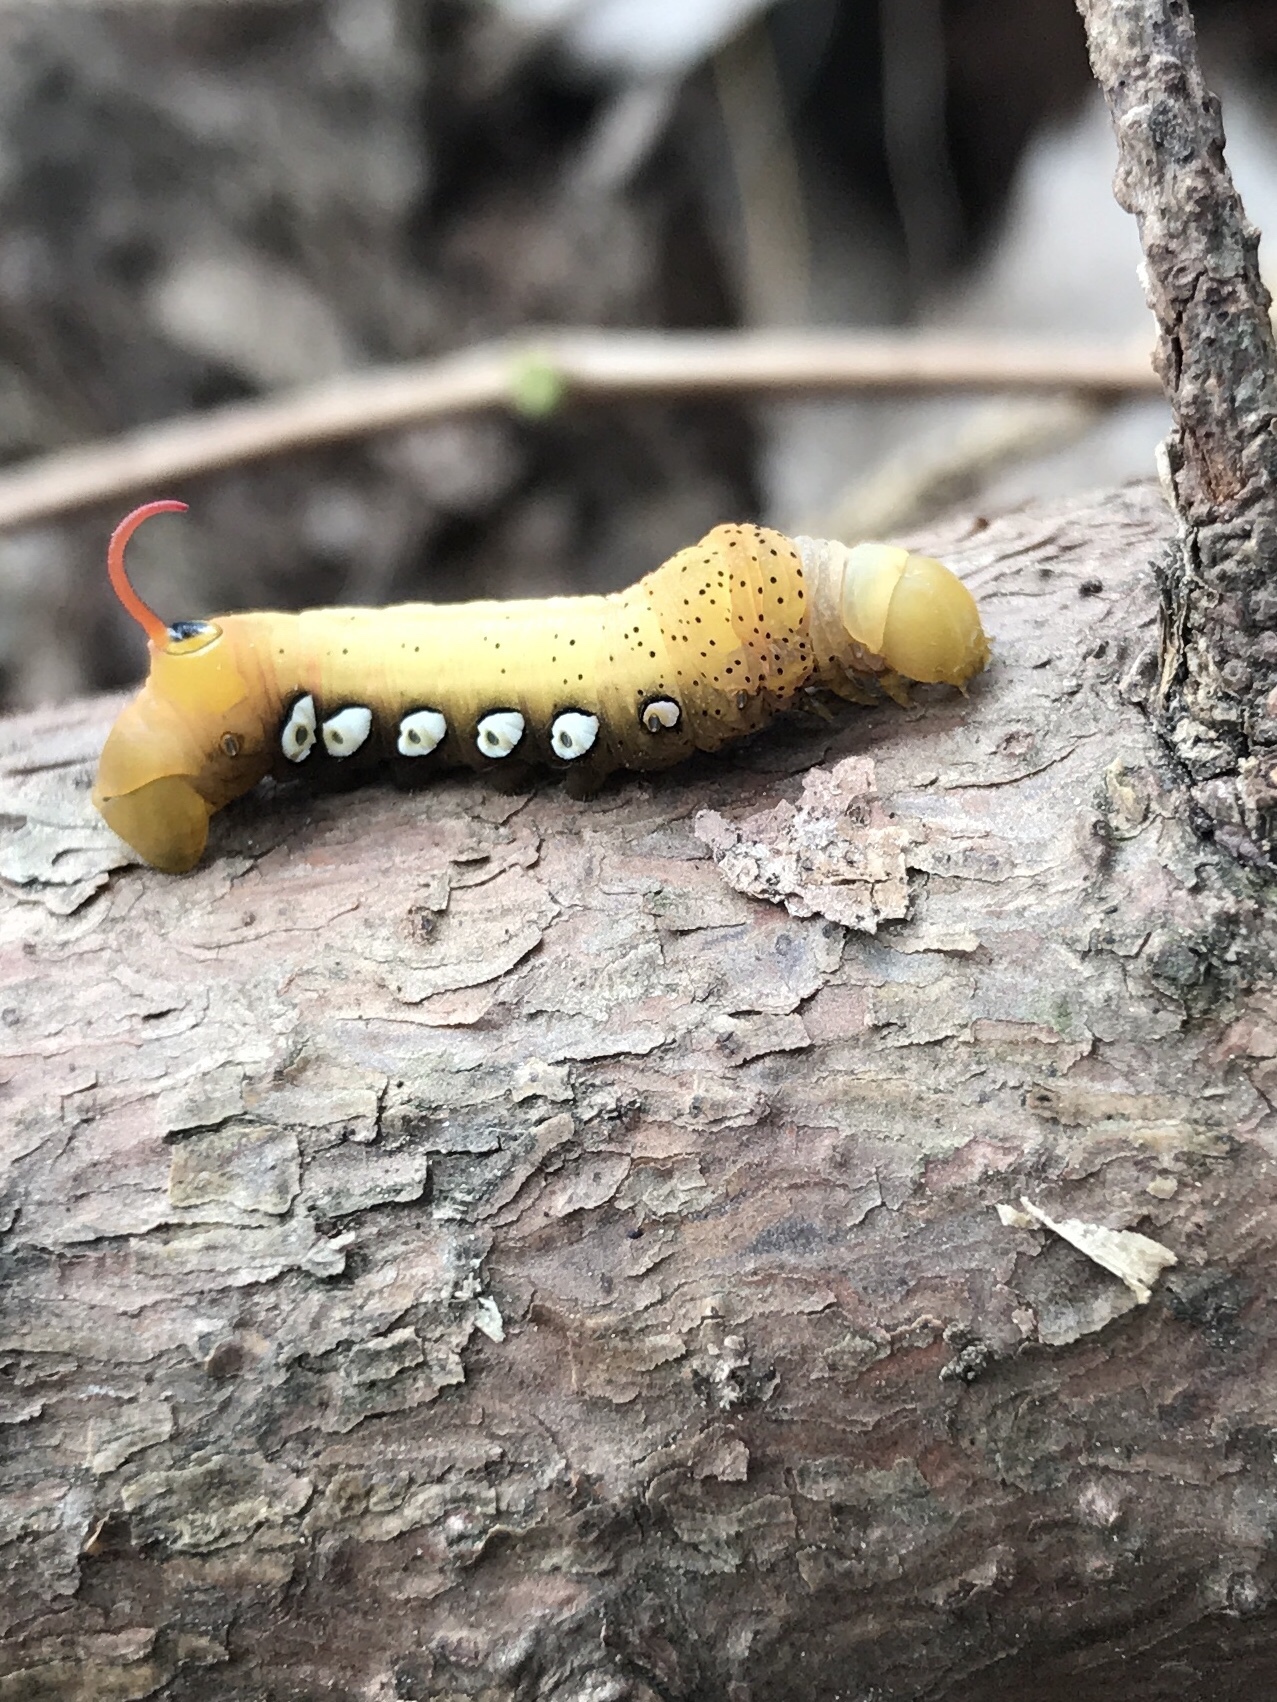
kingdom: Animalia
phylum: Arthropoda
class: Insecta
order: Lepidoptera
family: Sphingidae
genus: Eumorpha
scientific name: Eumorpha pandorus
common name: Pandora sphinx
